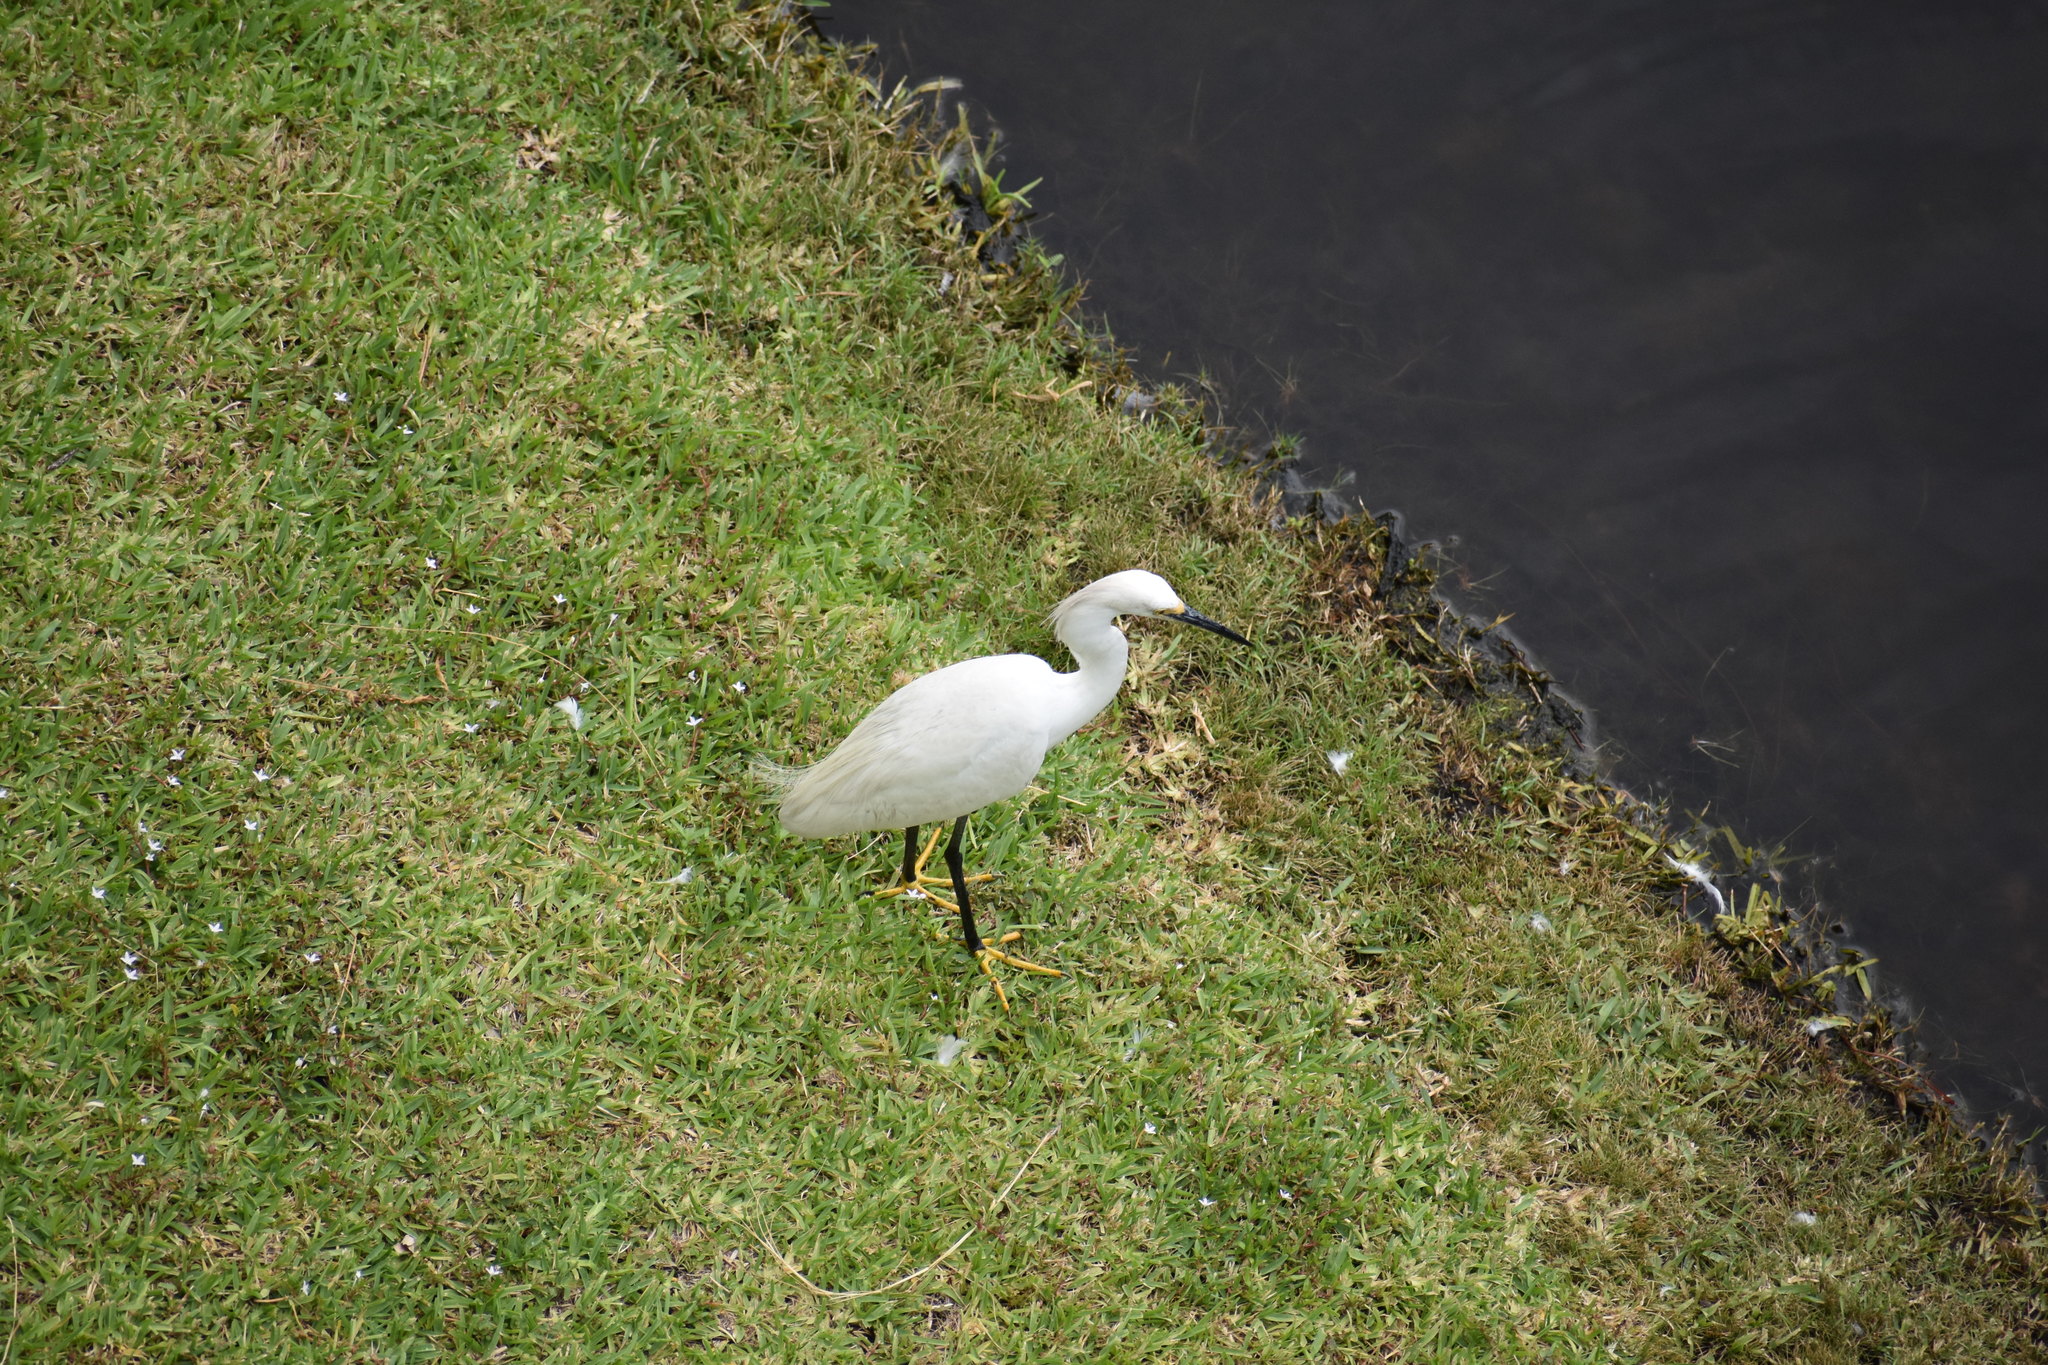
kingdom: Animalia
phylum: Chordata
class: Aves
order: Pelecaniformes
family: Ardeidae
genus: Egretta
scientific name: Egretta thula
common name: Snowy egret
